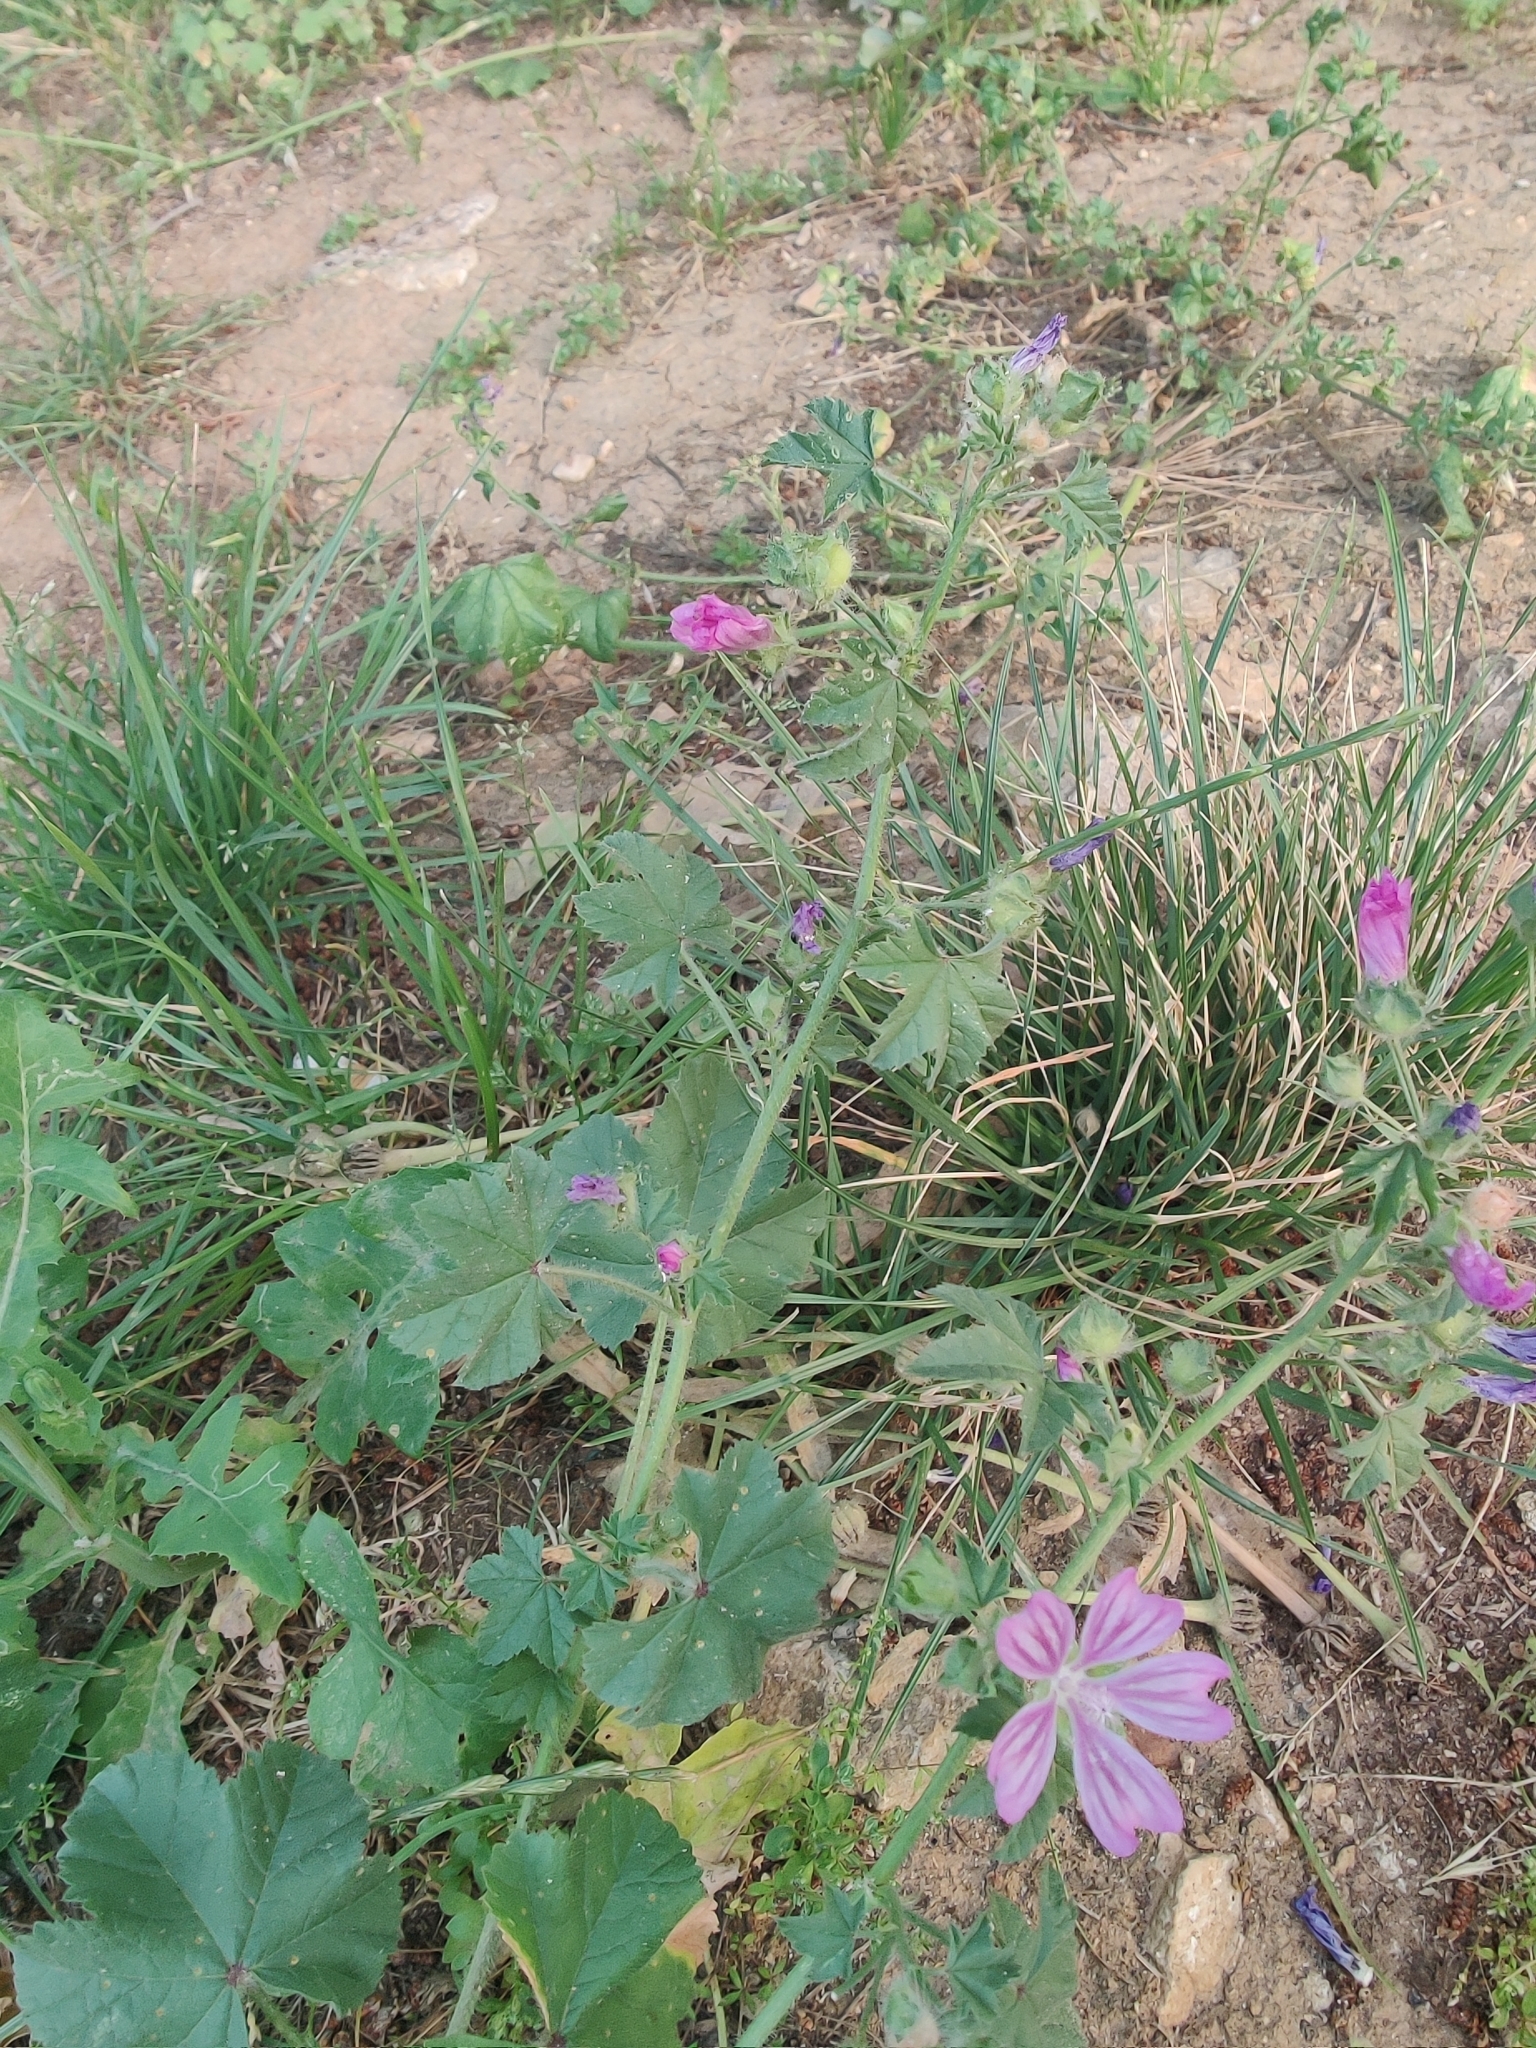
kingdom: Plantae
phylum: Tracheophyta
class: Magnoliopsida
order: Malvales
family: Malvaceae
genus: Malva
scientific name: Malva sylvestris
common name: Common mallow
